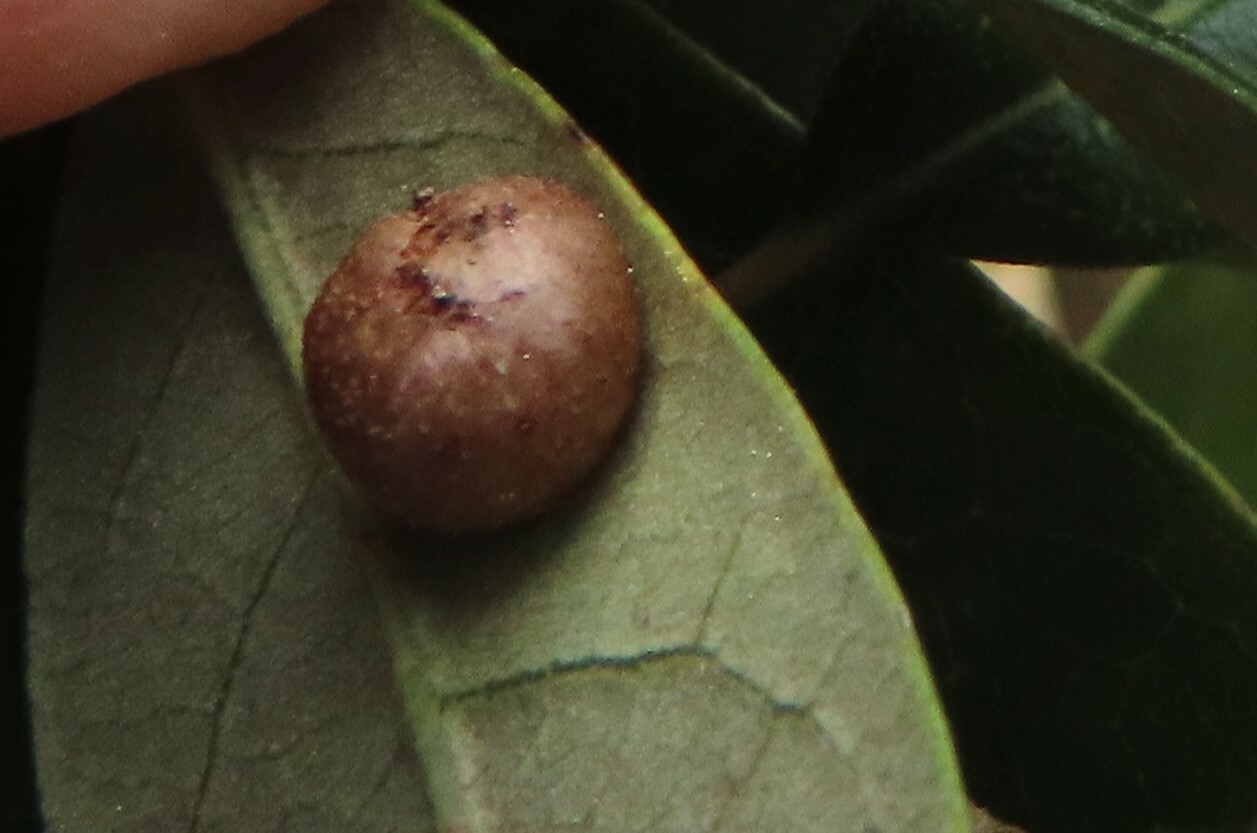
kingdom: Animalia
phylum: Arthropoda
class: Insecta
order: Hymenoptera
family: Cynipidae
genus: Belonocnema
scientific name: Belonocnema treatae
